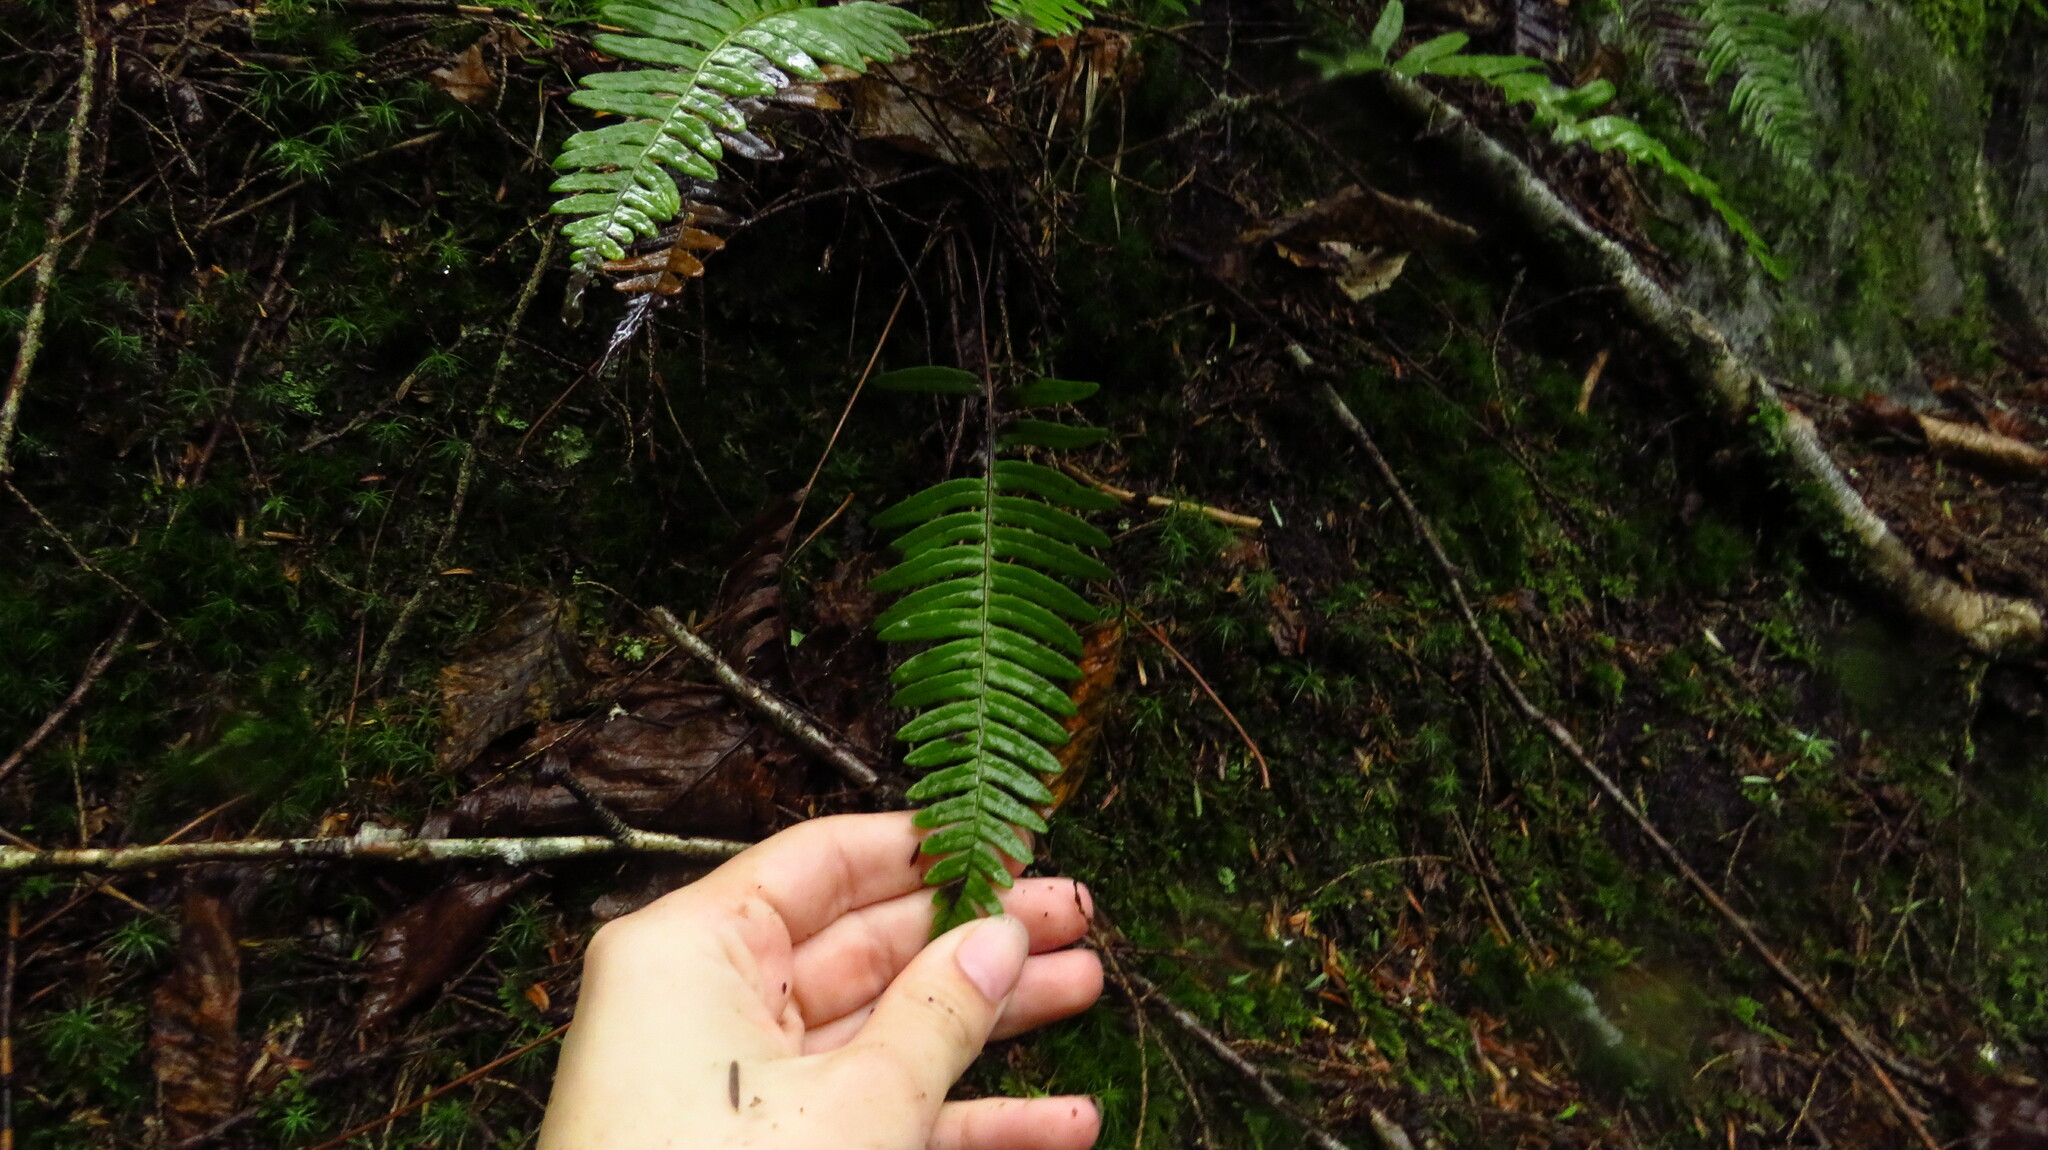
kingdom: Plantae
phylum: Tracheophyta
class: Polypodiopsida
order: Polypodiales
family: Polypodiaceae
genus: Polypodium
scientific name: Polypodium appalachianum
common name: Appalachian polypody
